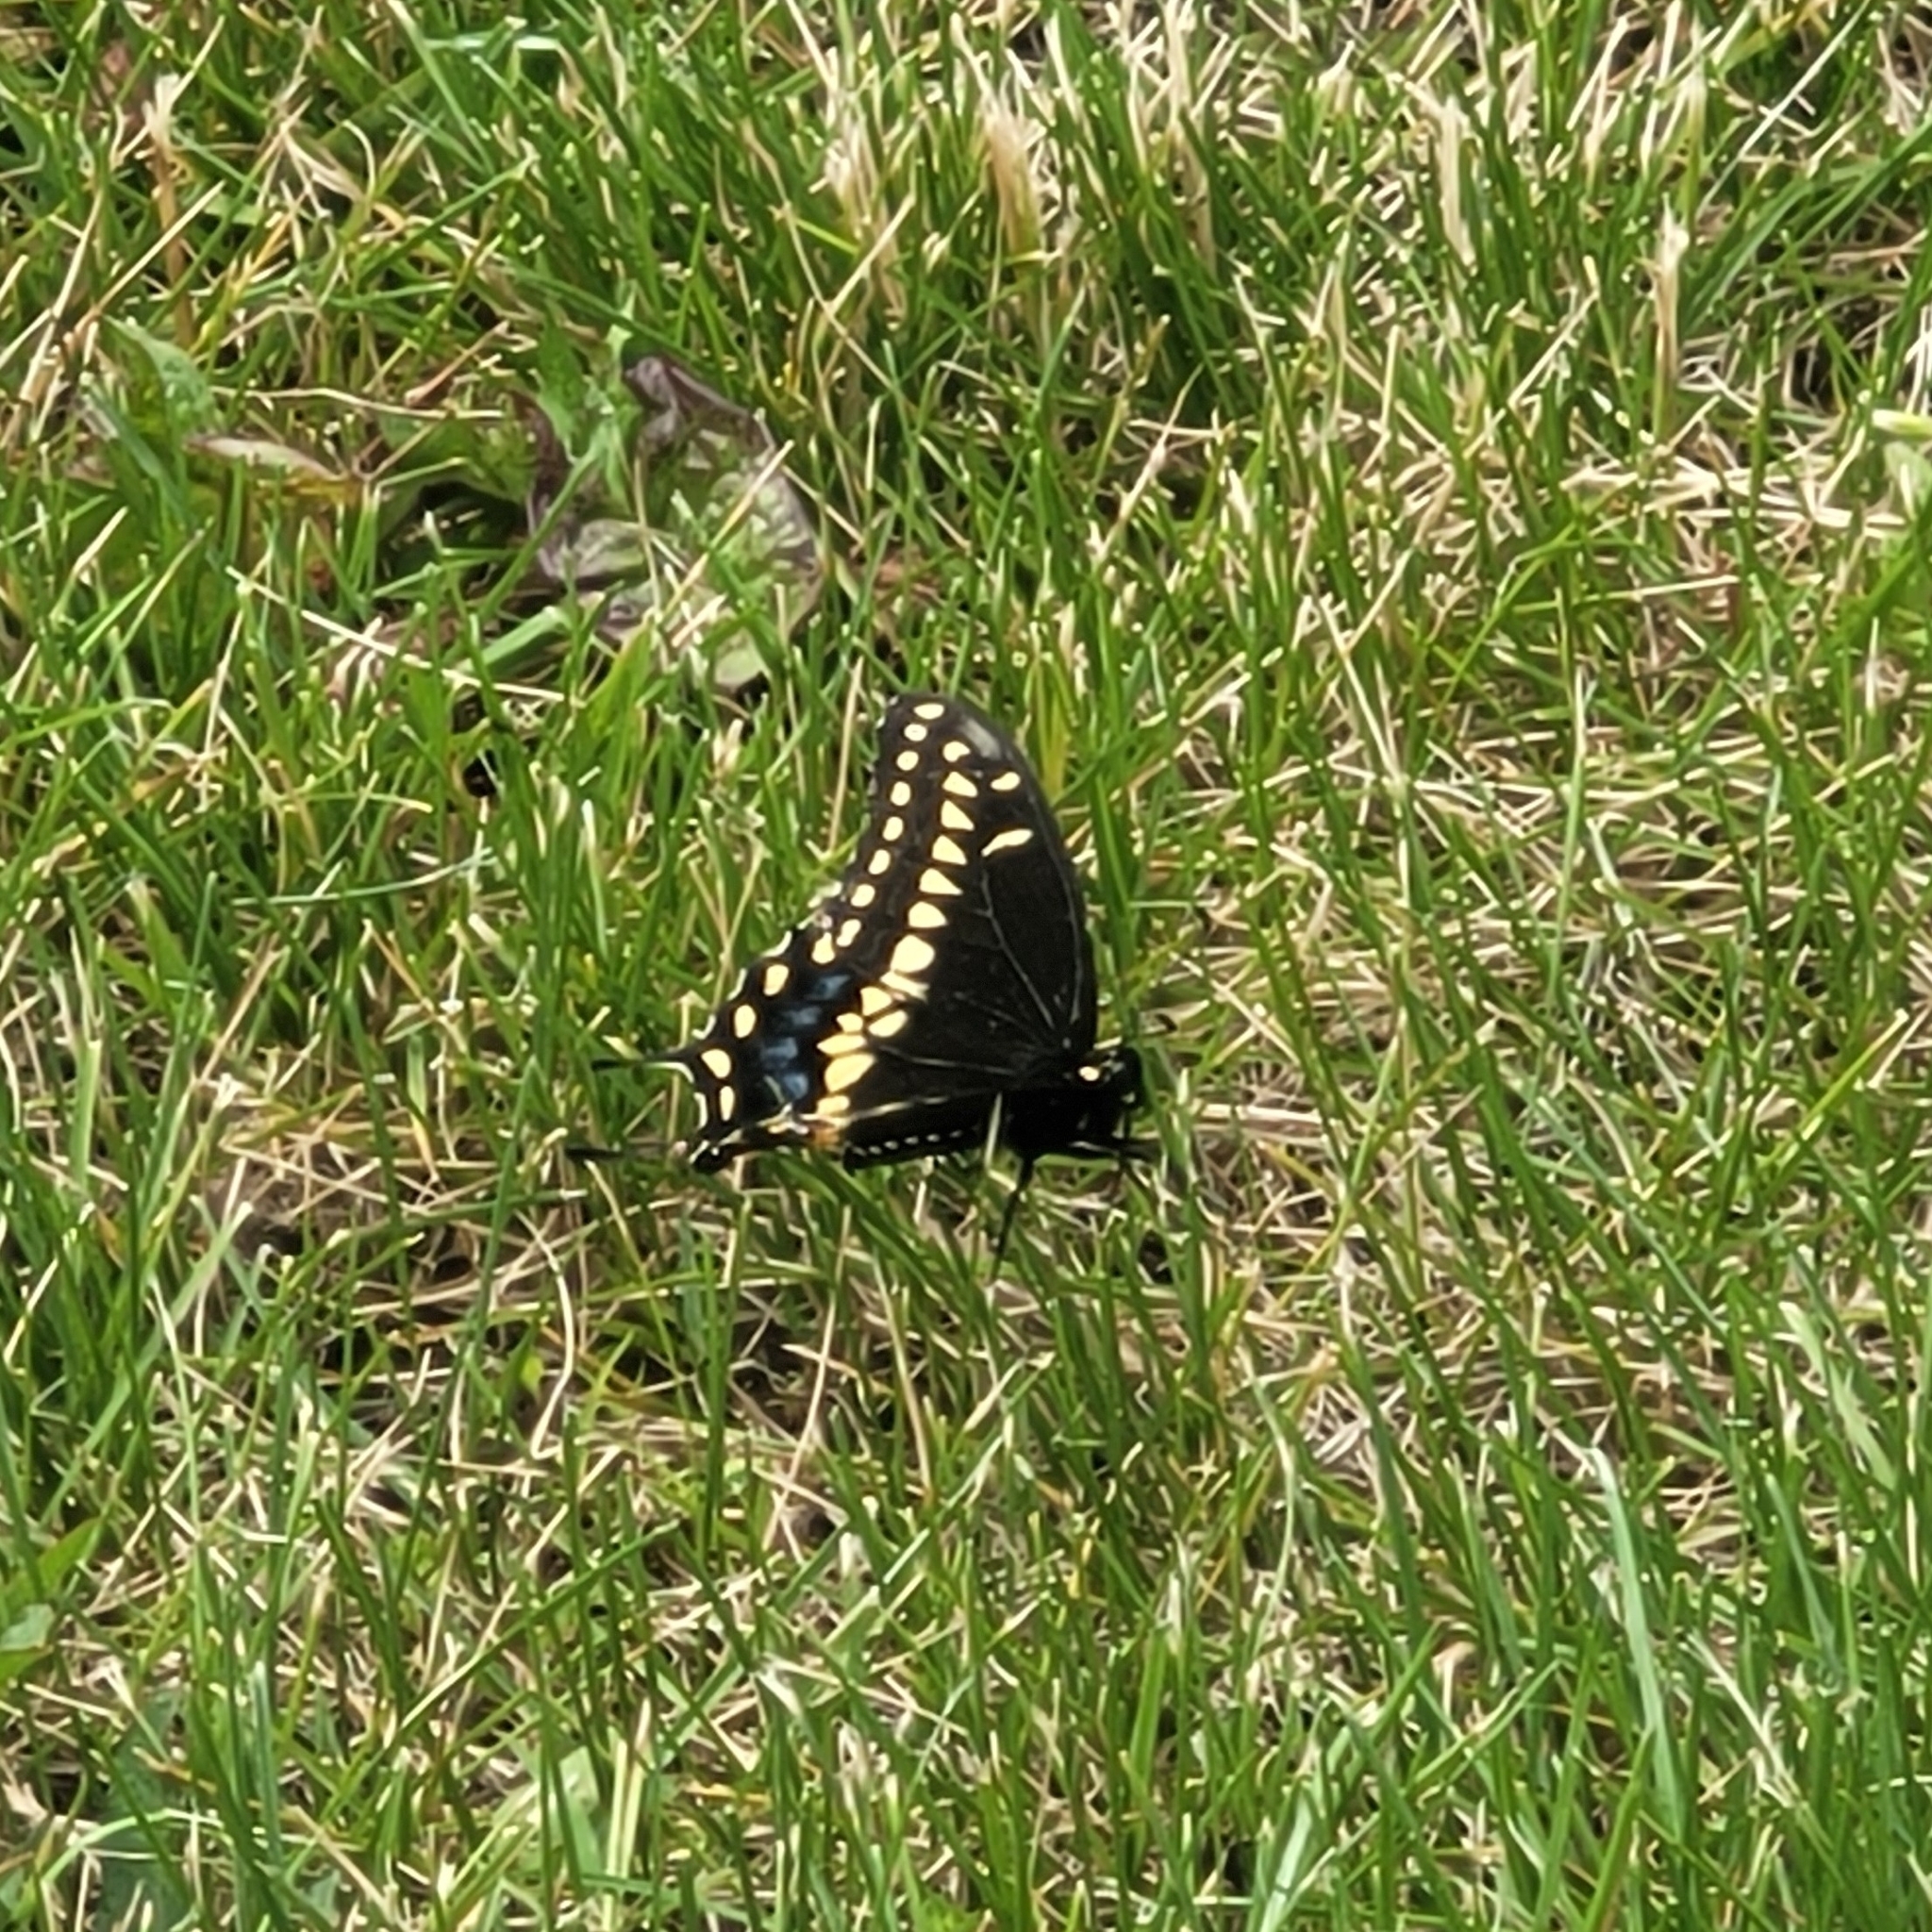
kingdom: Animalia
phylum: Arthropoda
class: Insecta
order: Lepidoptera
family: Papilionidae
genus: Papilio
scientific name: Papilio polyxenes
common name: Black swallowtail
